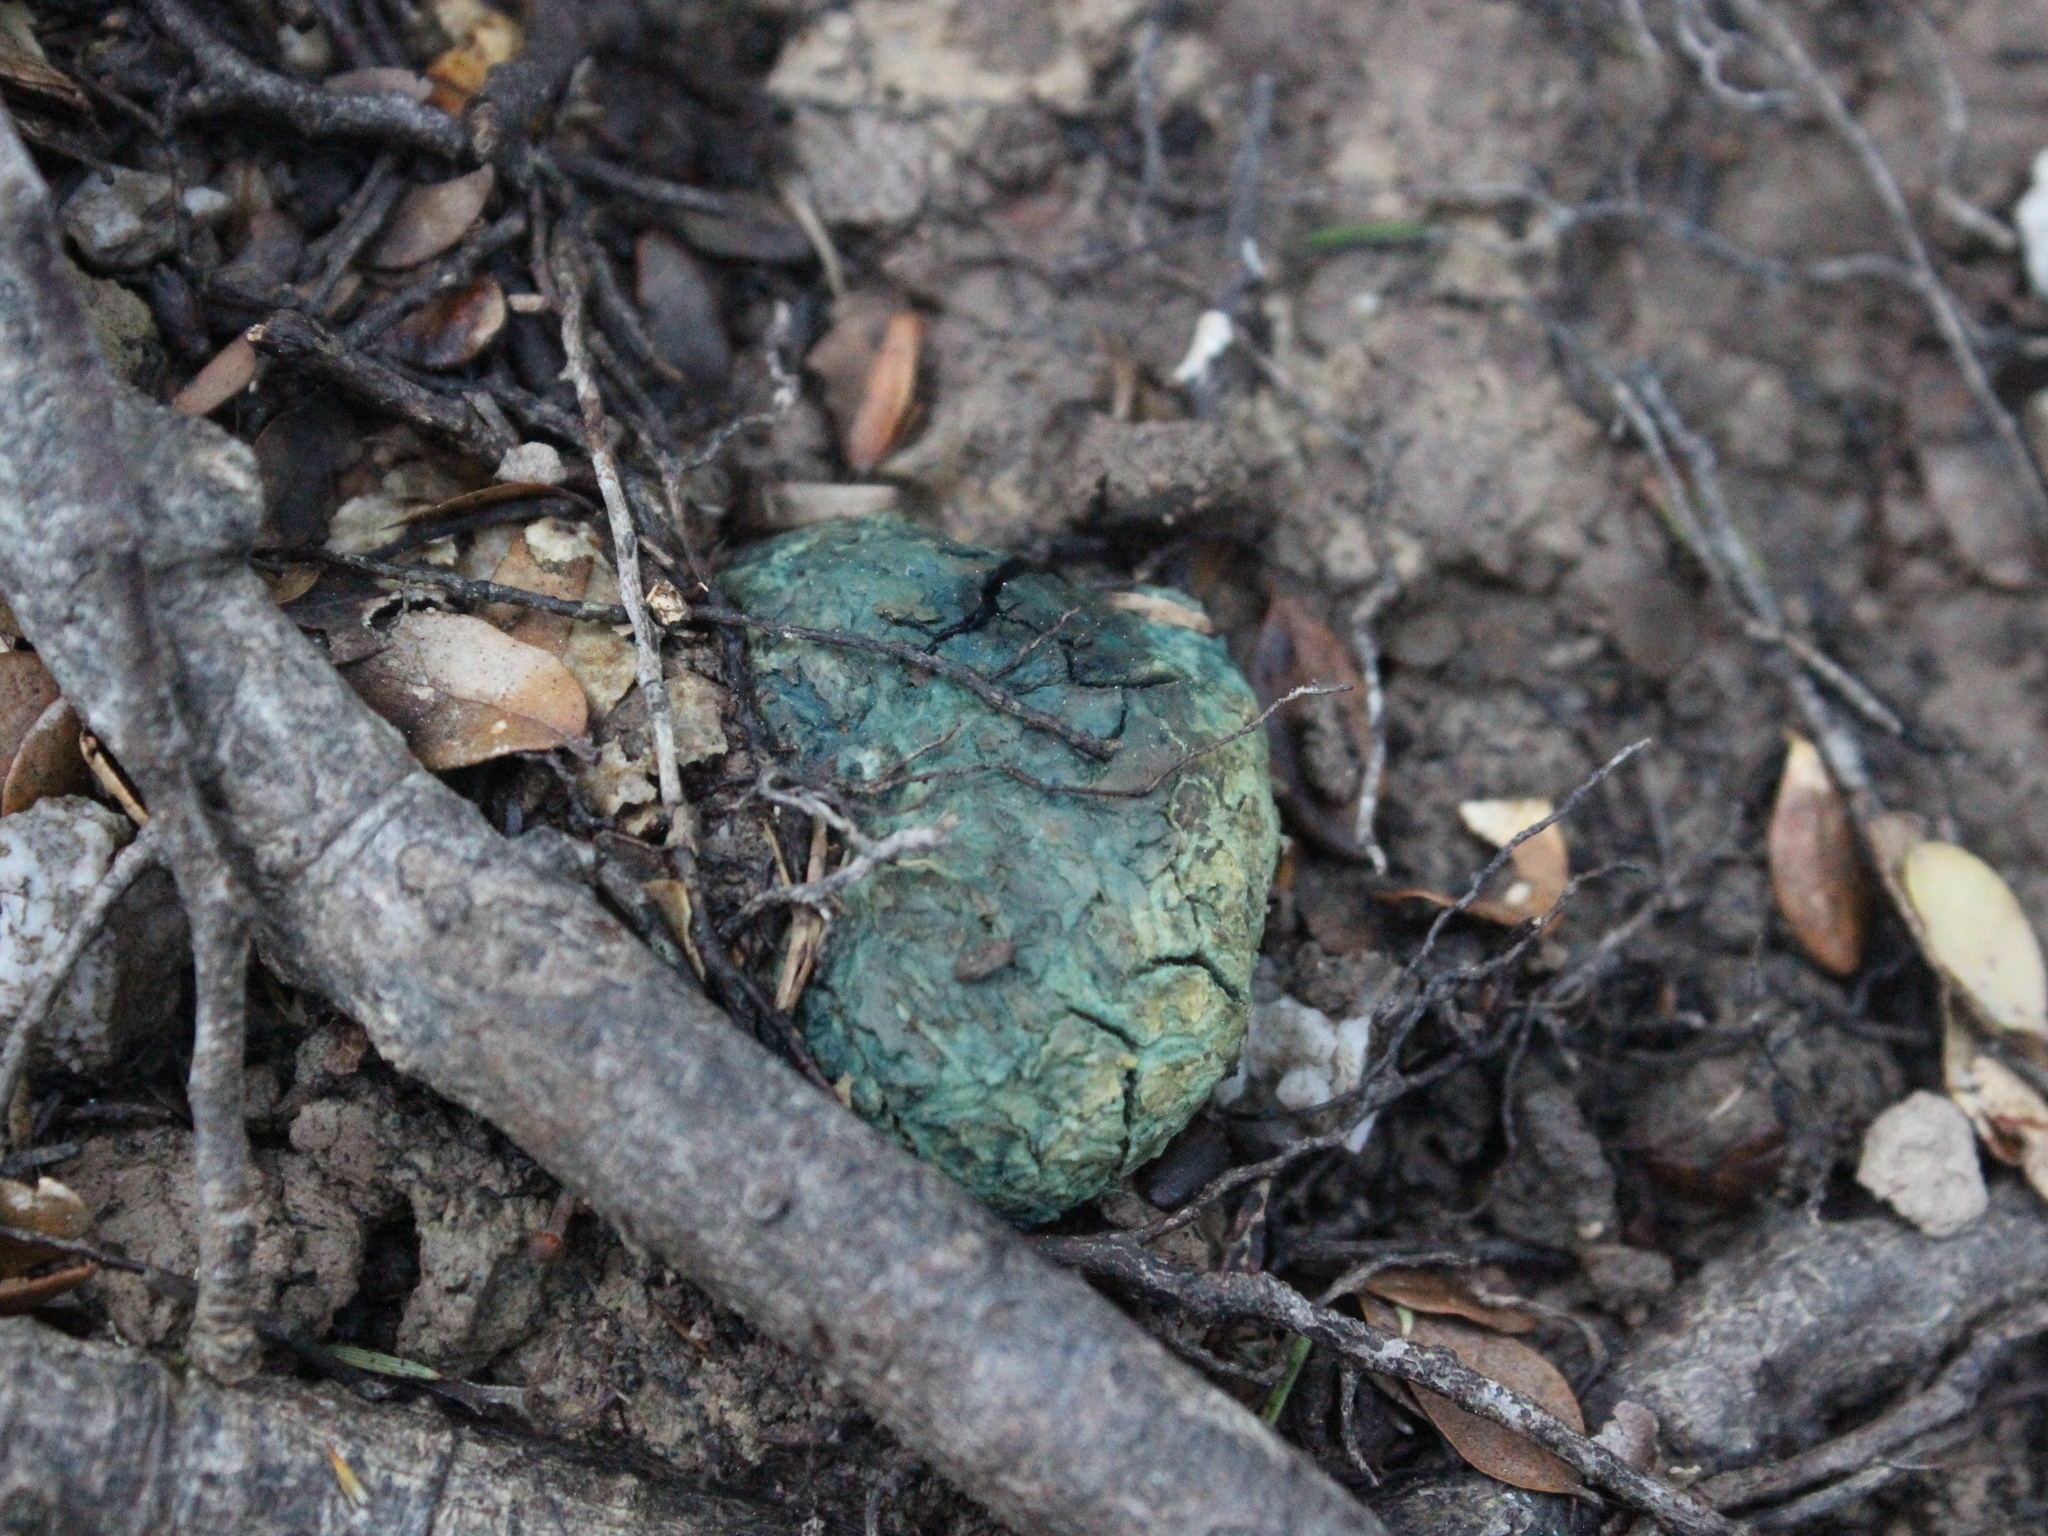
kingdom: Fungi
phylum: Basidiomycota
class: Agaricomycetes
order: Boletales
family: Boletaceae
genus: Leccinum
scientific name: Leccinum pachyderme
